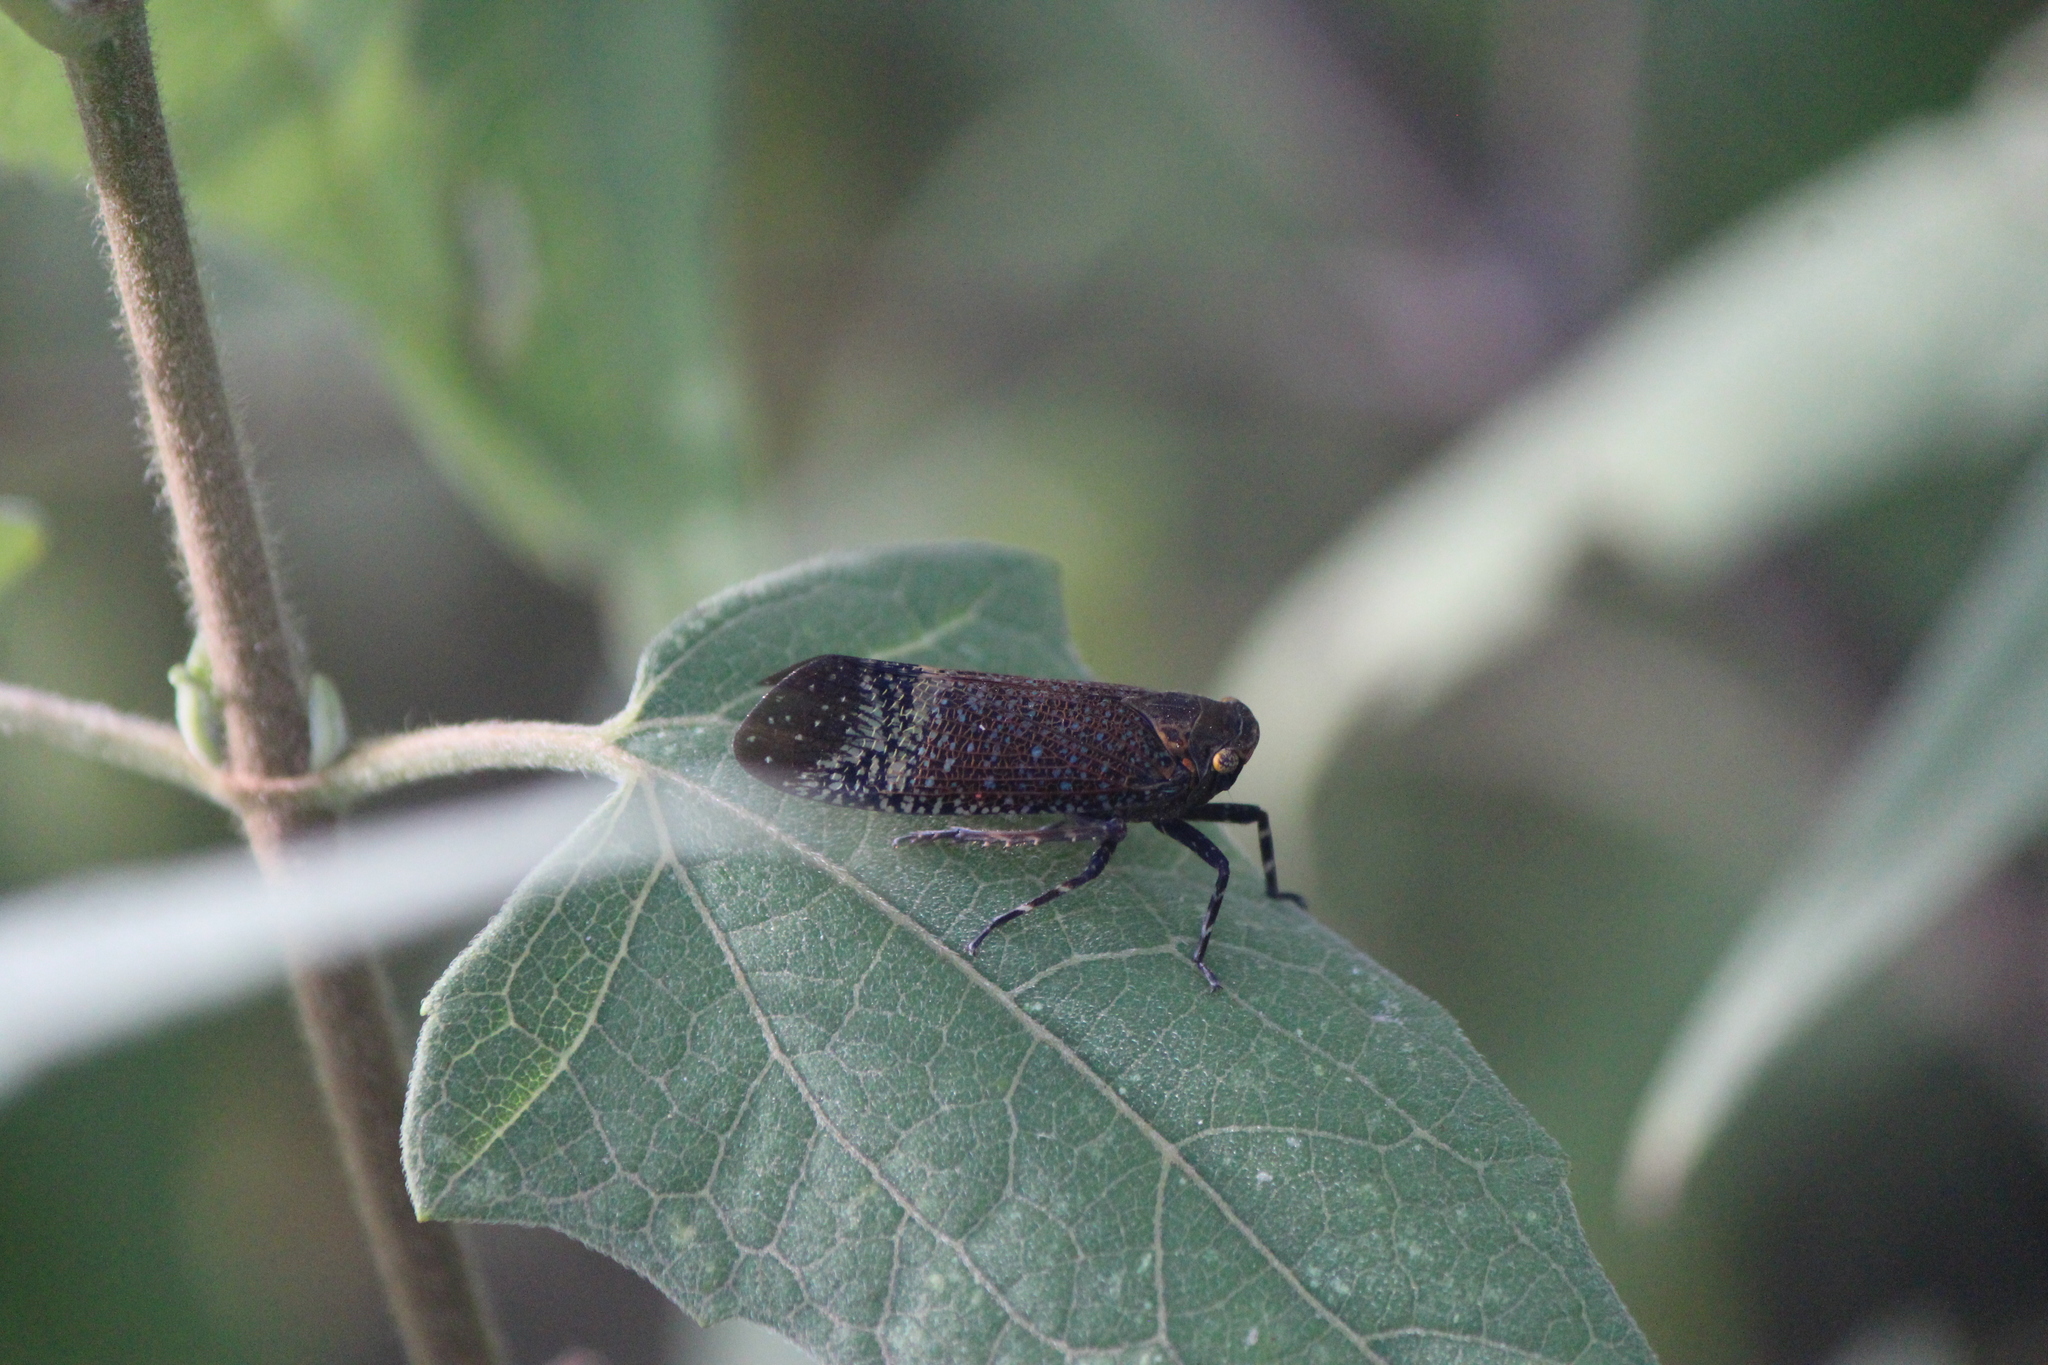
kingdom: Animalia
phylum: Arthropoda
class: Insecta
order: Hemiptera
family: Fulgoridae
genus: Alaruasa
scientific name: Alaruasa lepida
